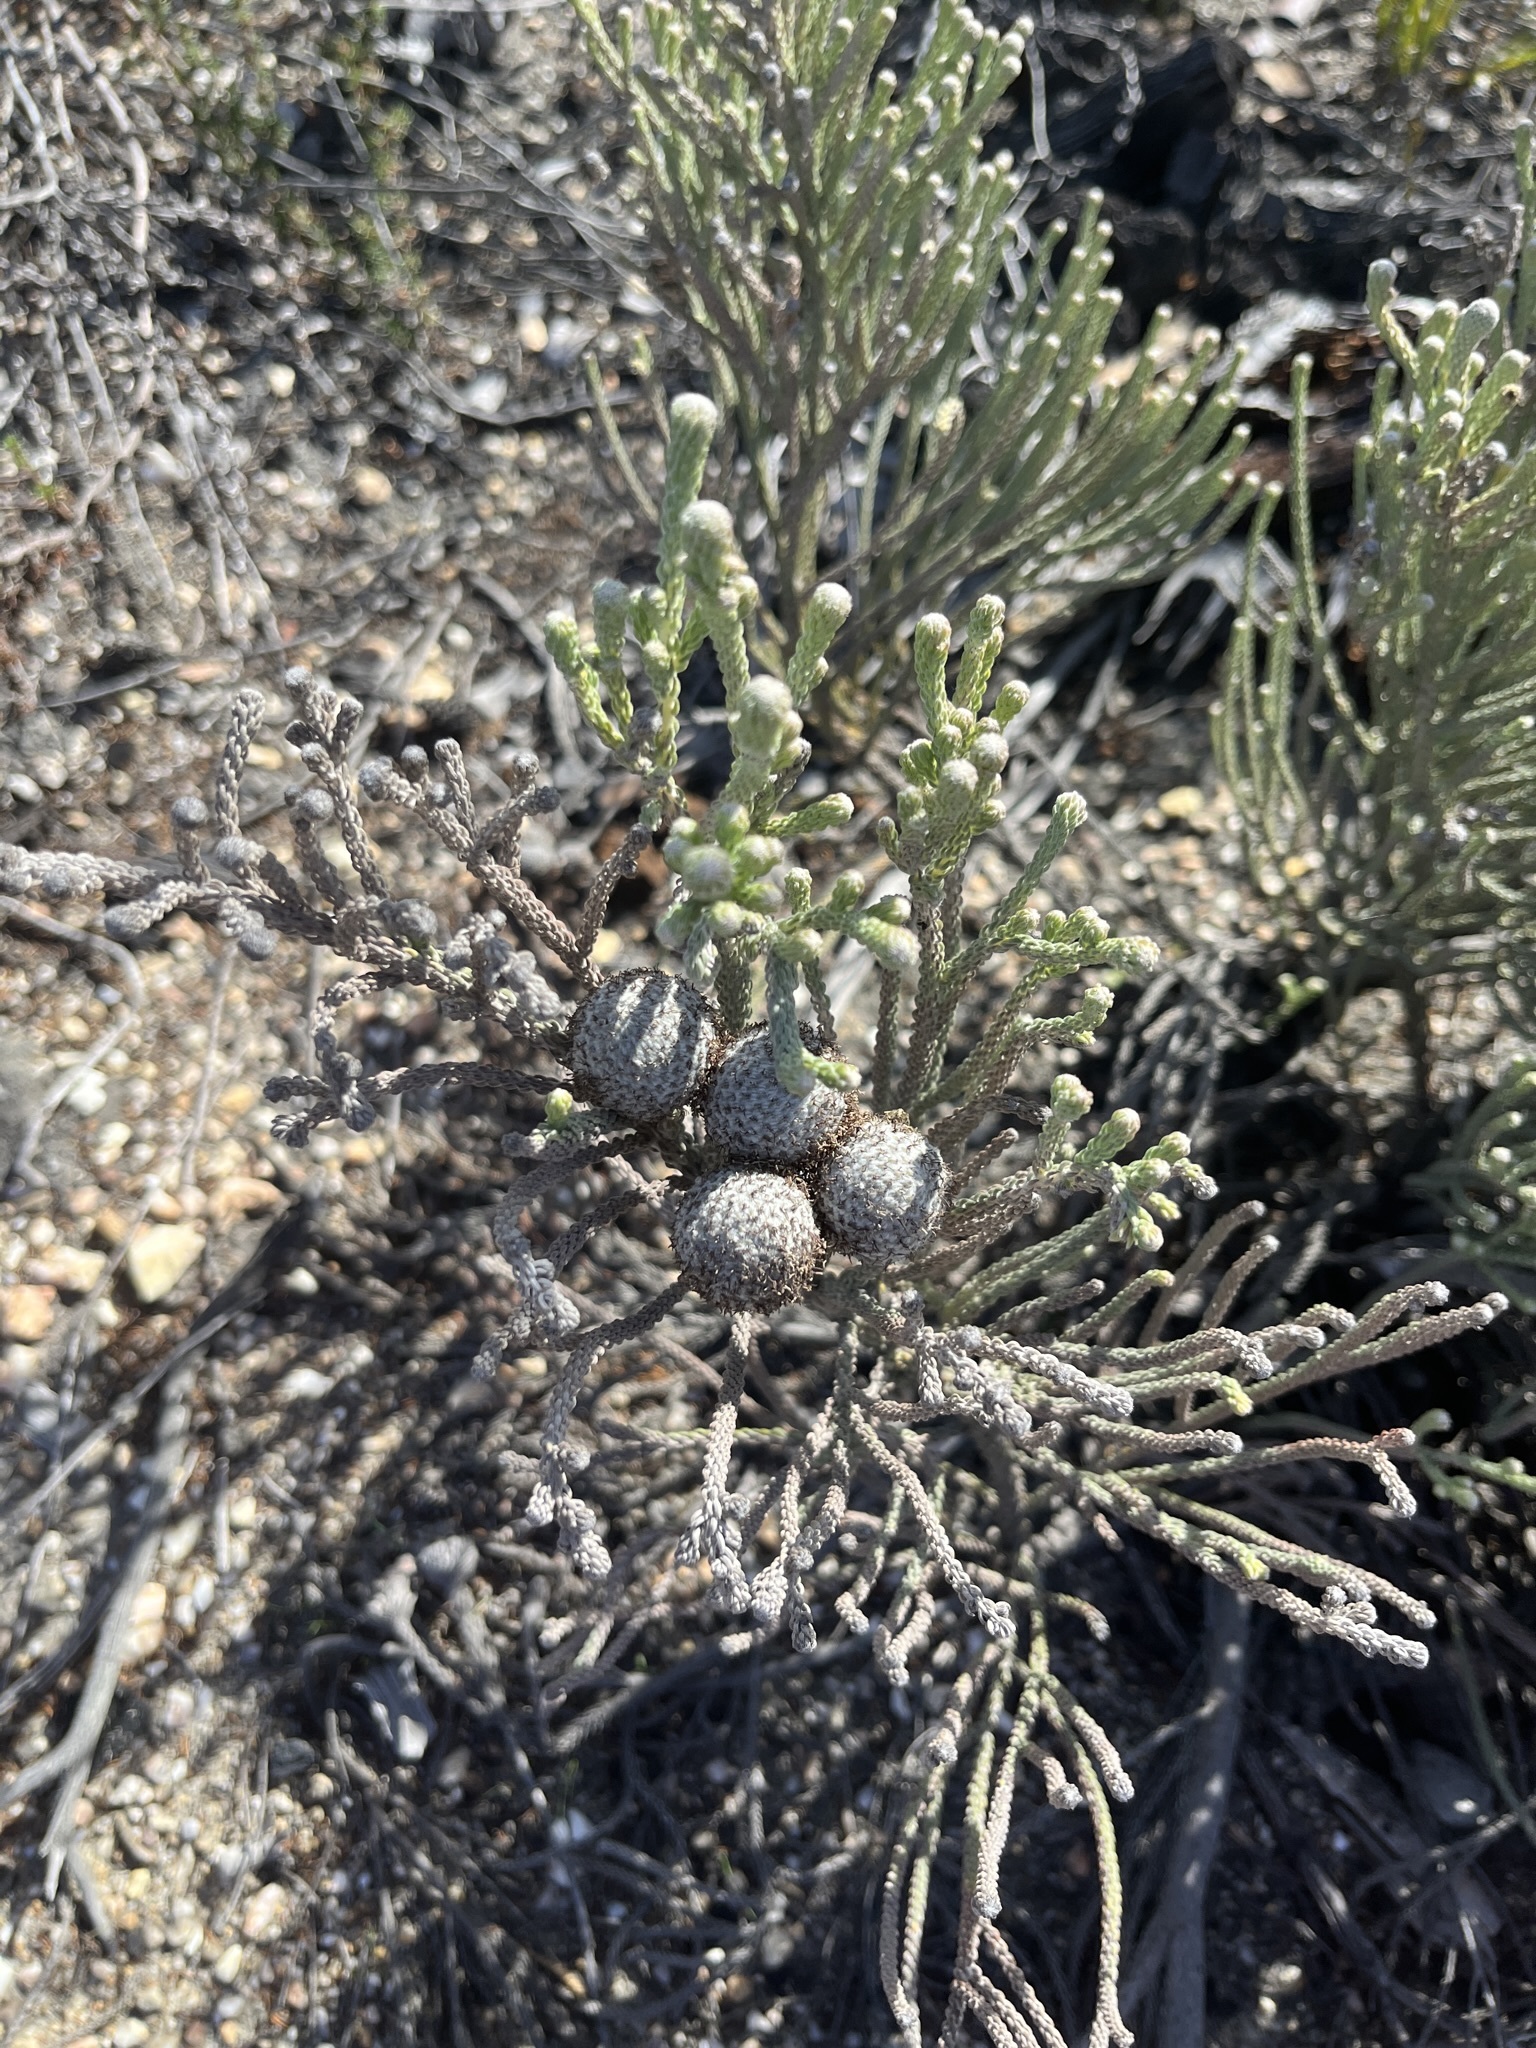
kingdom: Plantae
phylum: Tracheophyta
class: Magnoliopsida
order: Bruniales
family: Bruniaceae
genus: Brunia
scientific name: Brunia laevis
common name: Silver brunia
